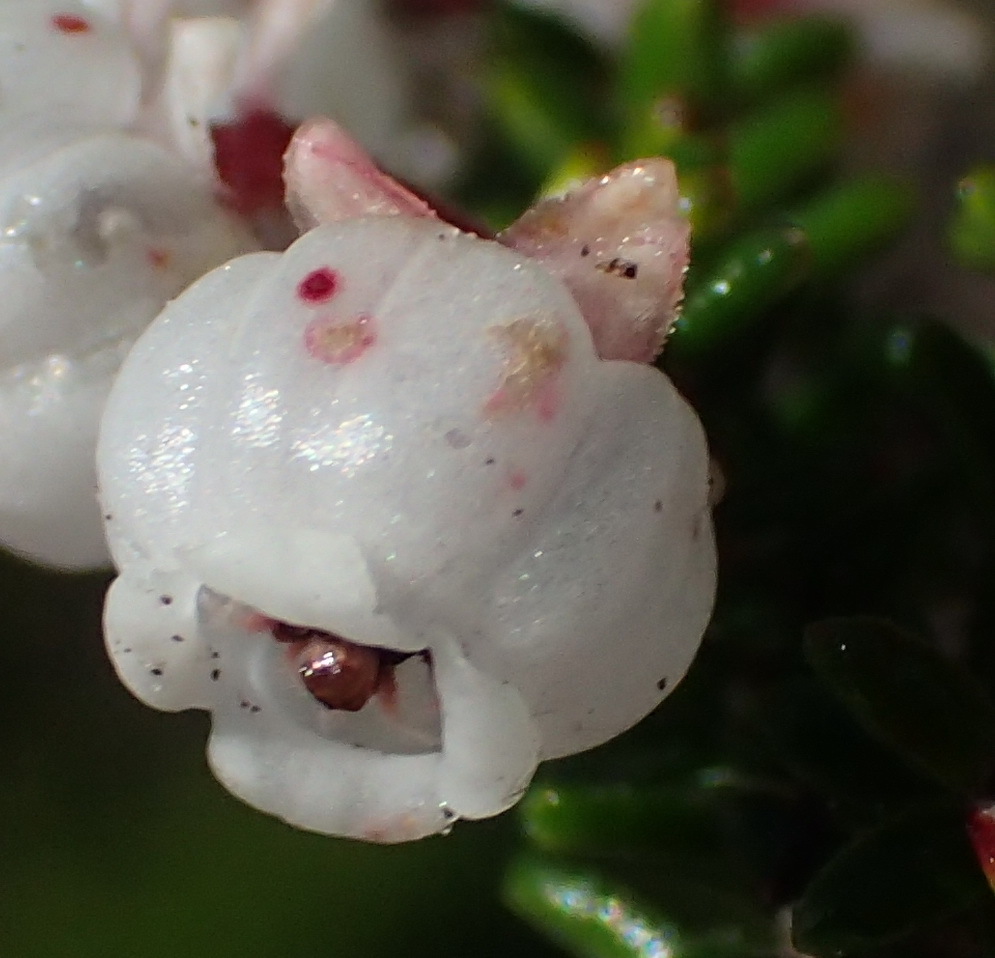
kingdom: Plantae
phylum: Tracheophyta
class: Magnoliopsida
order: Ericales
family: Ericaceae
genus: Erica
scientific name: Erica formosa
